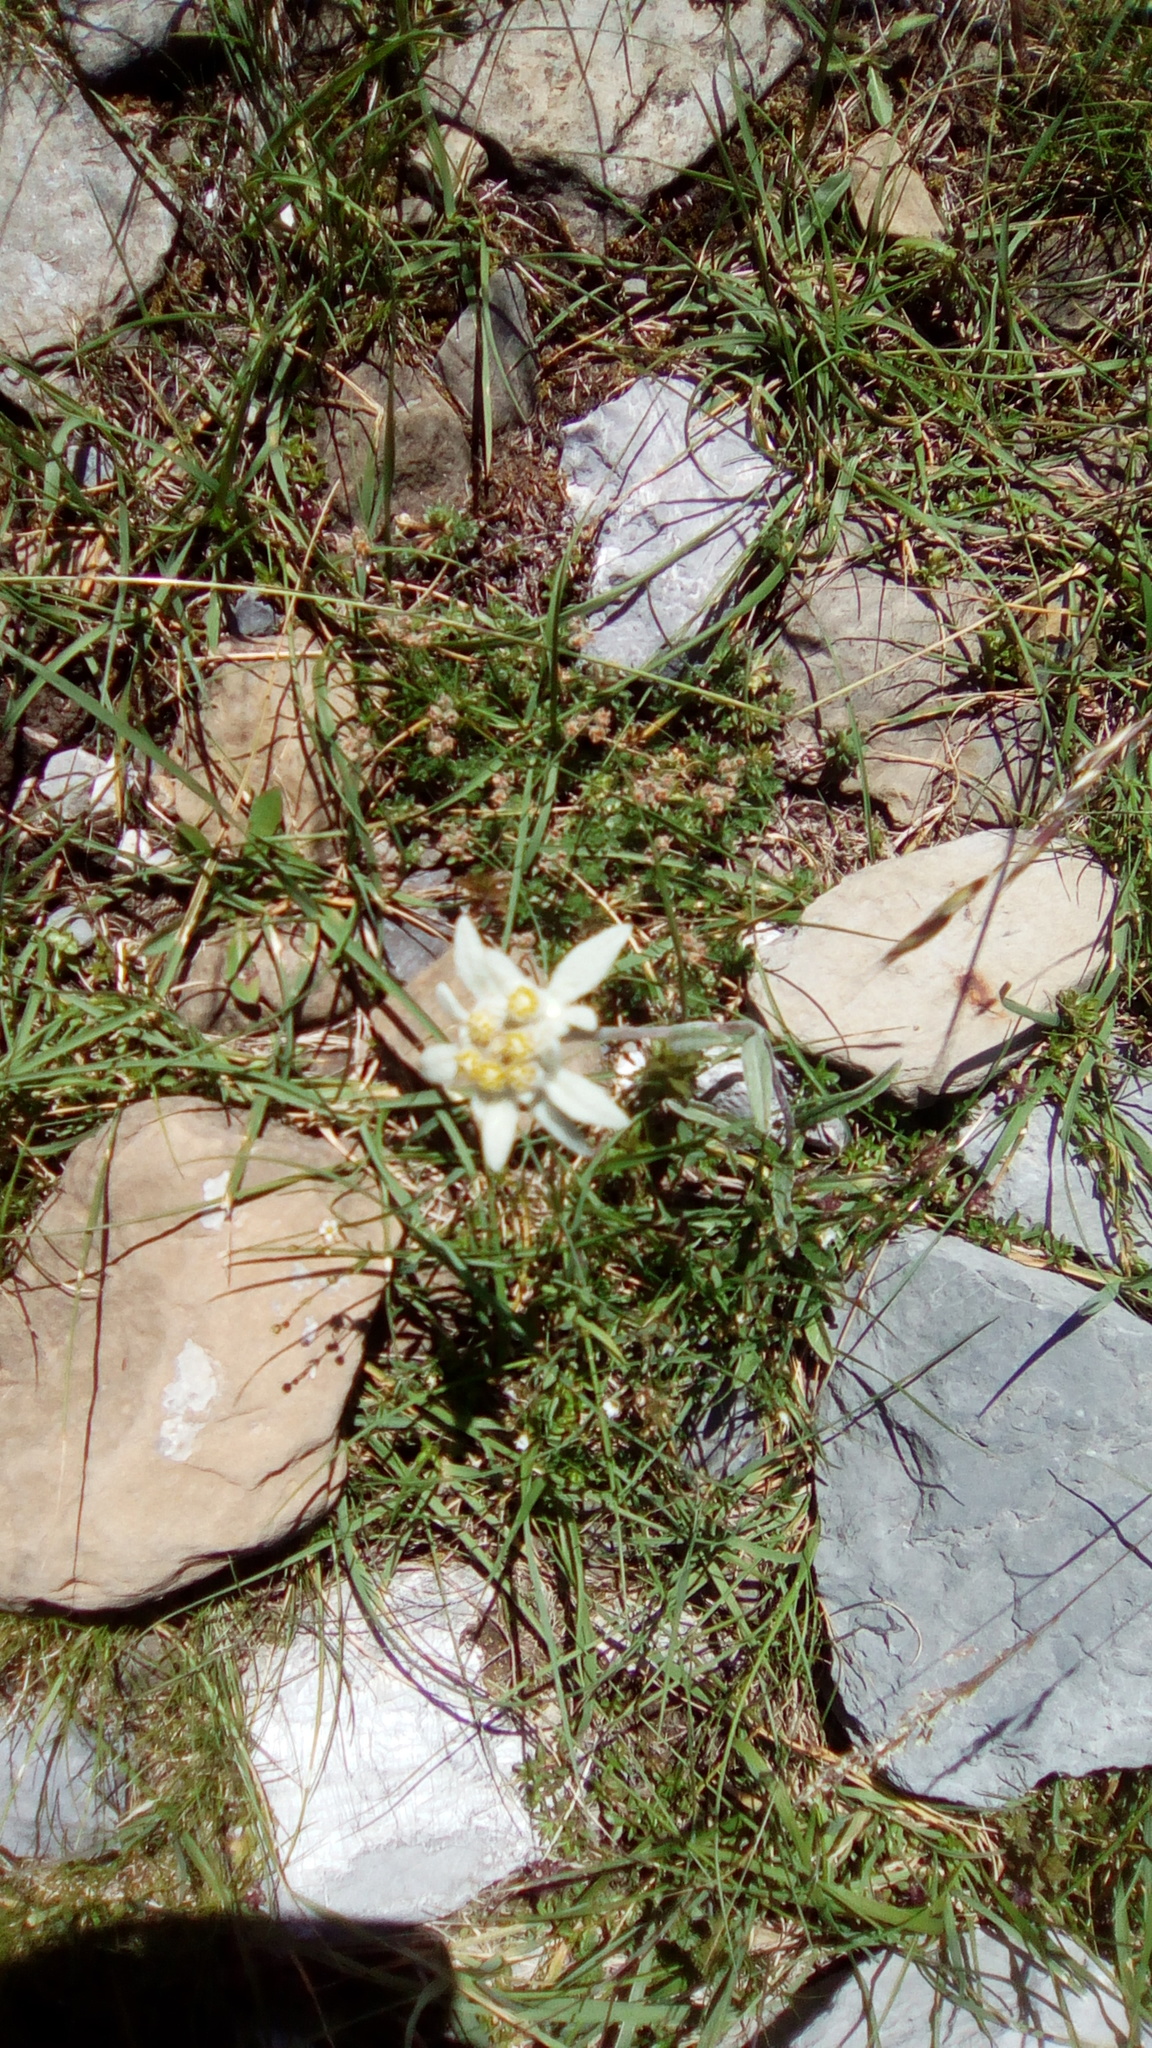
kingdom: Plantae
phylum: Tracheophyta
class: Magnoliopsida
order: Asterales
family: Asteraceae
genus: Leontopodium
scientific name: Leontopodium nivale
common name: Edelweiss
